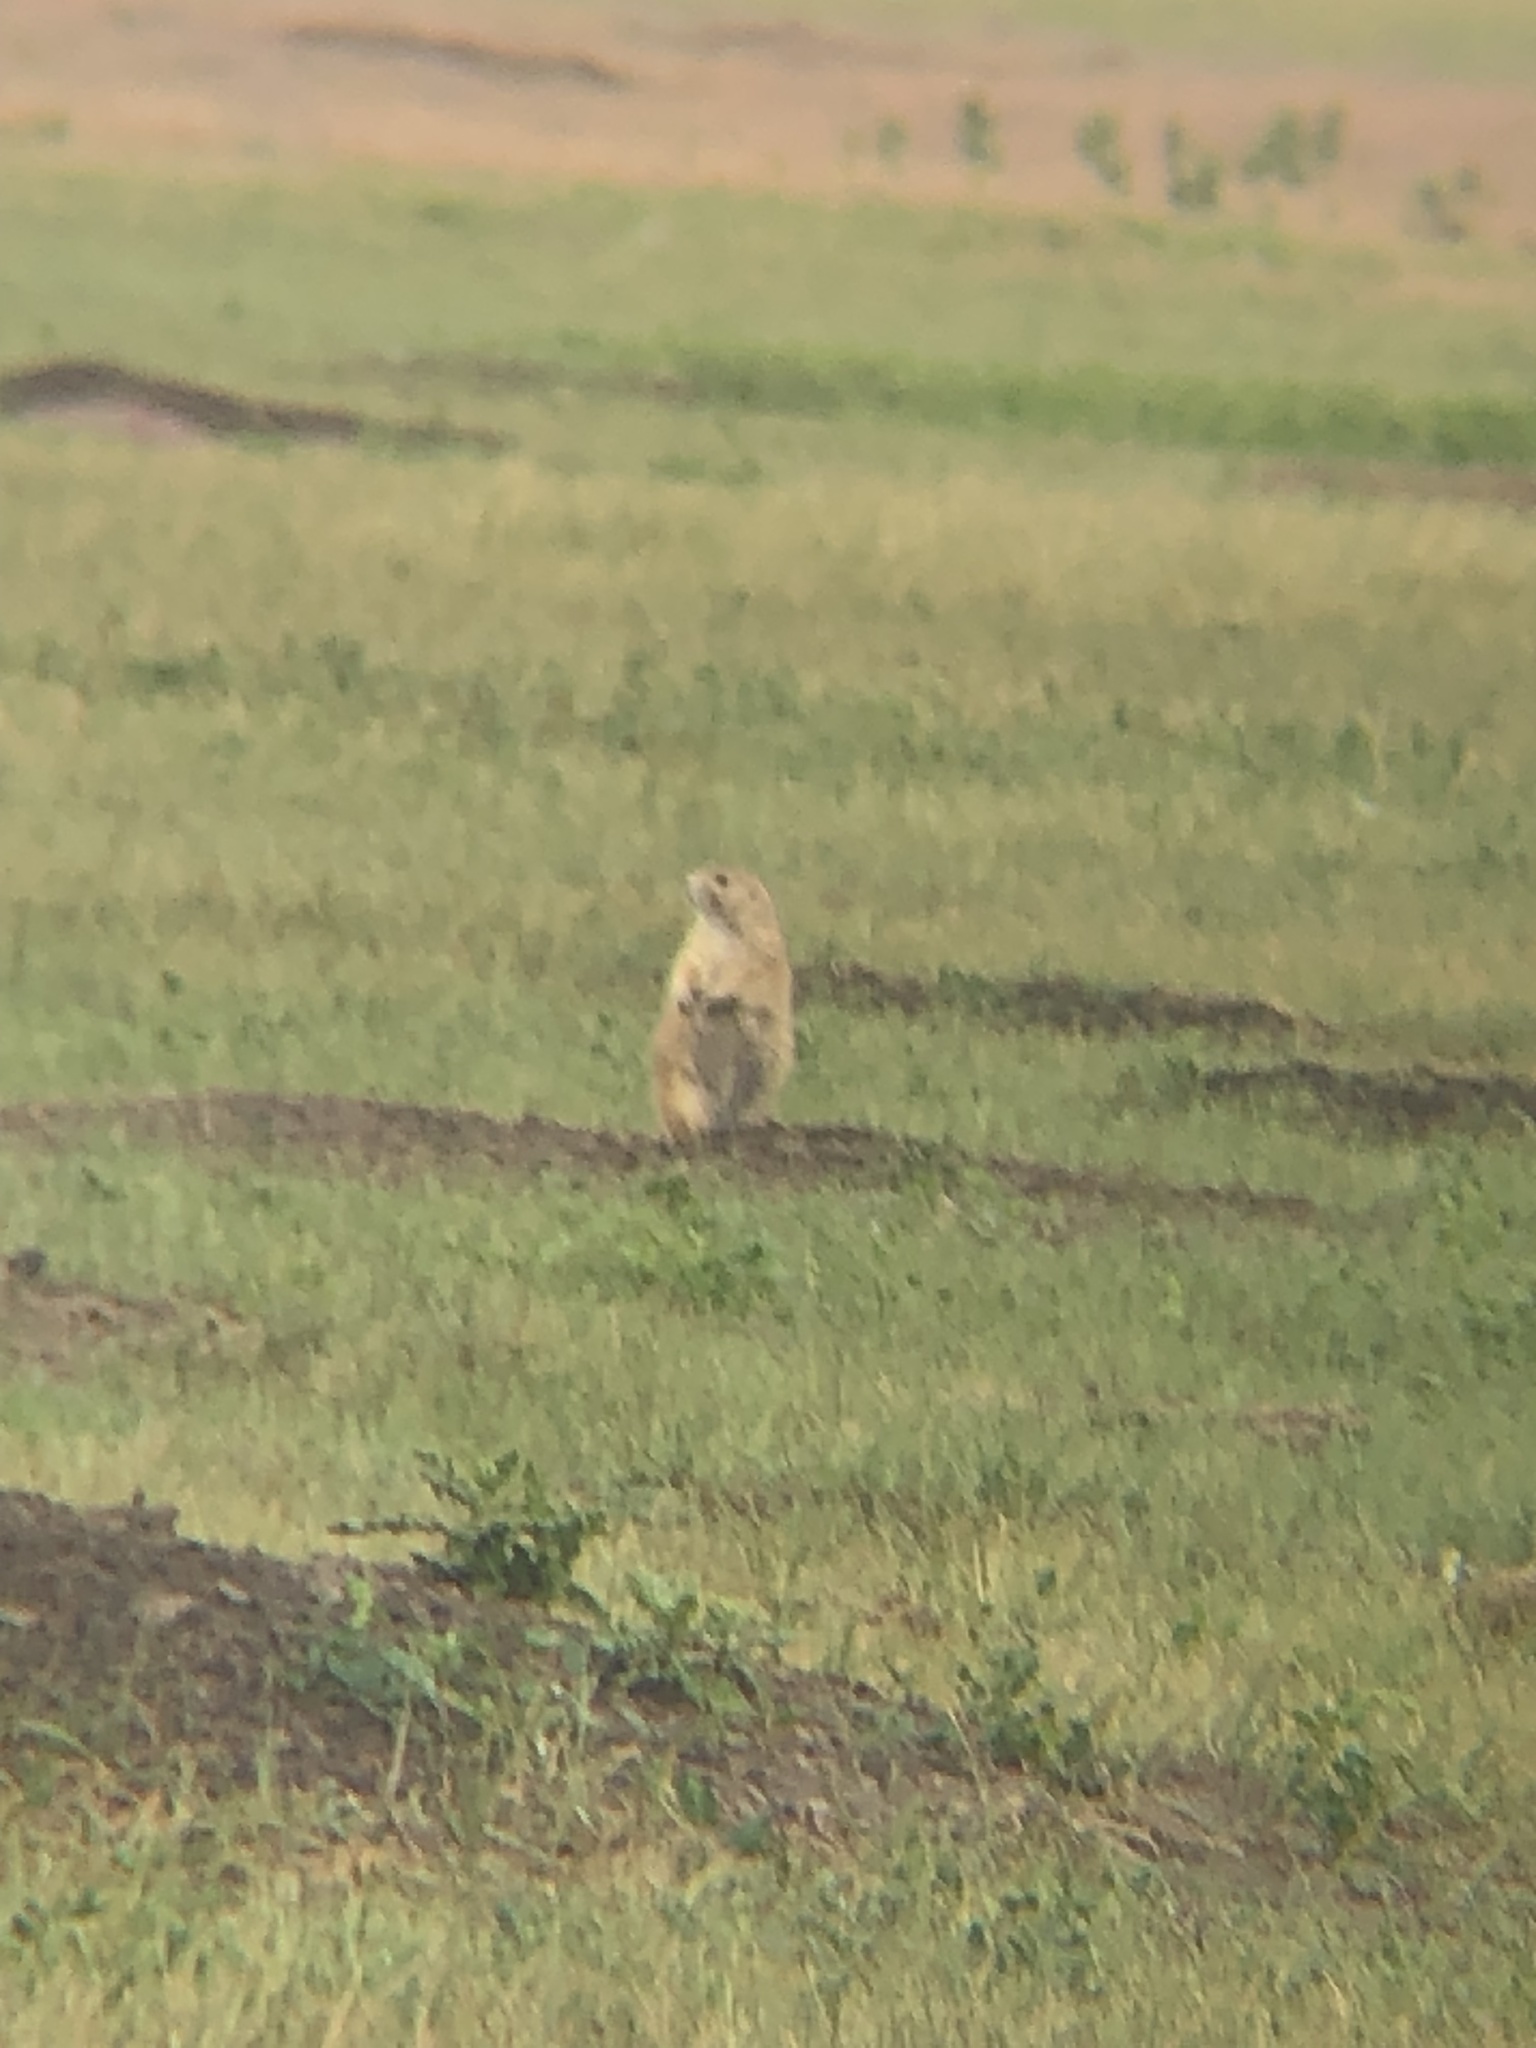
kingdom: Animalia
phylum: Chordata
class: Mammalia
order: Rodentia
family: Sciuridae
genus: Cynomys
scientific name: Cynomys ludovicianus
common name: Black-tailed prairie dog
